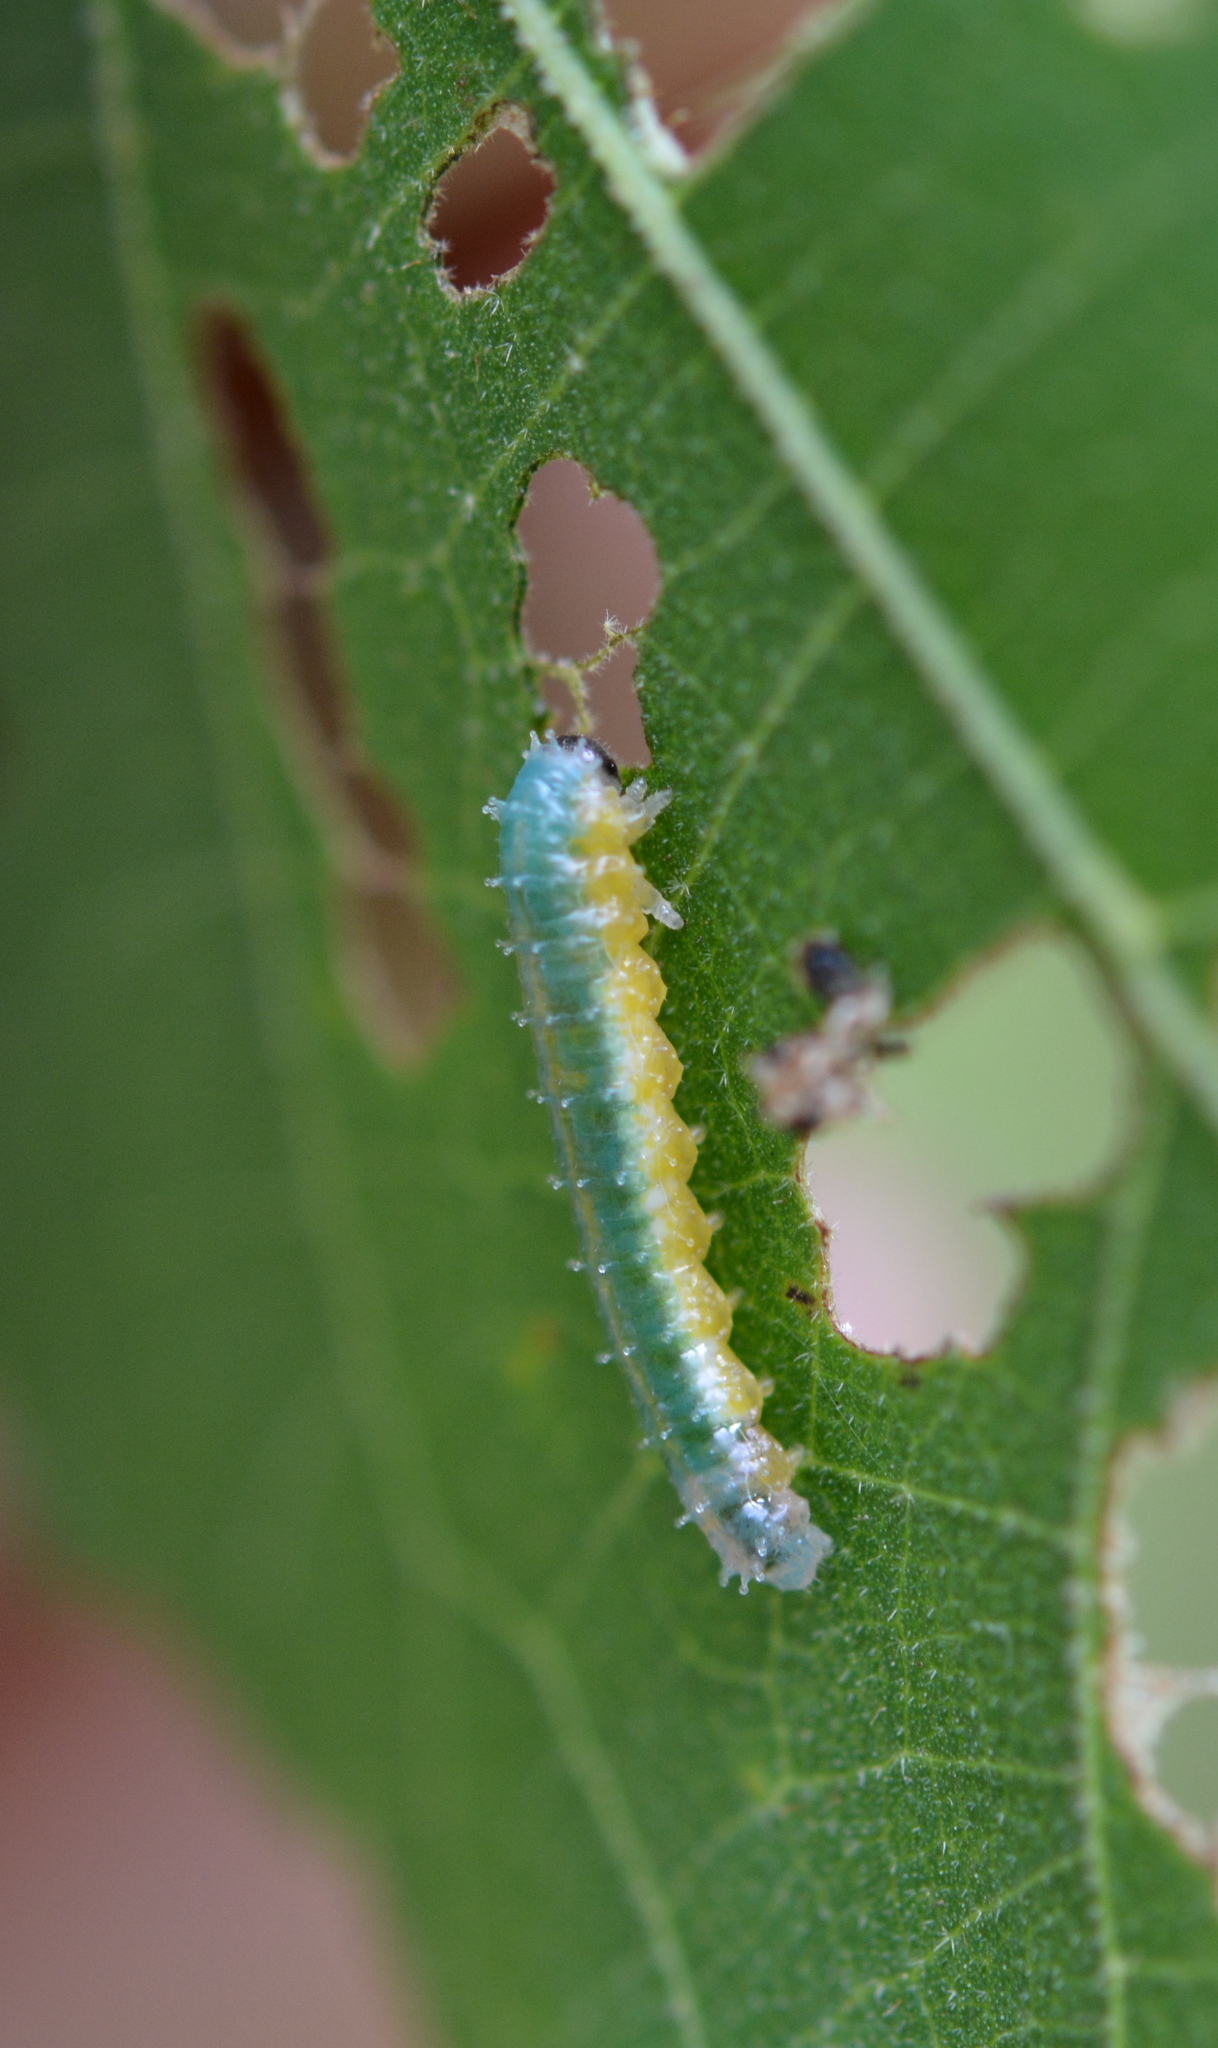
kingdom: Animalia
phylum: Arthropoda
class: Insecta
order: Hymenoptera
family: Argidae
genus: Atomacera
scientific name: Atomacera
